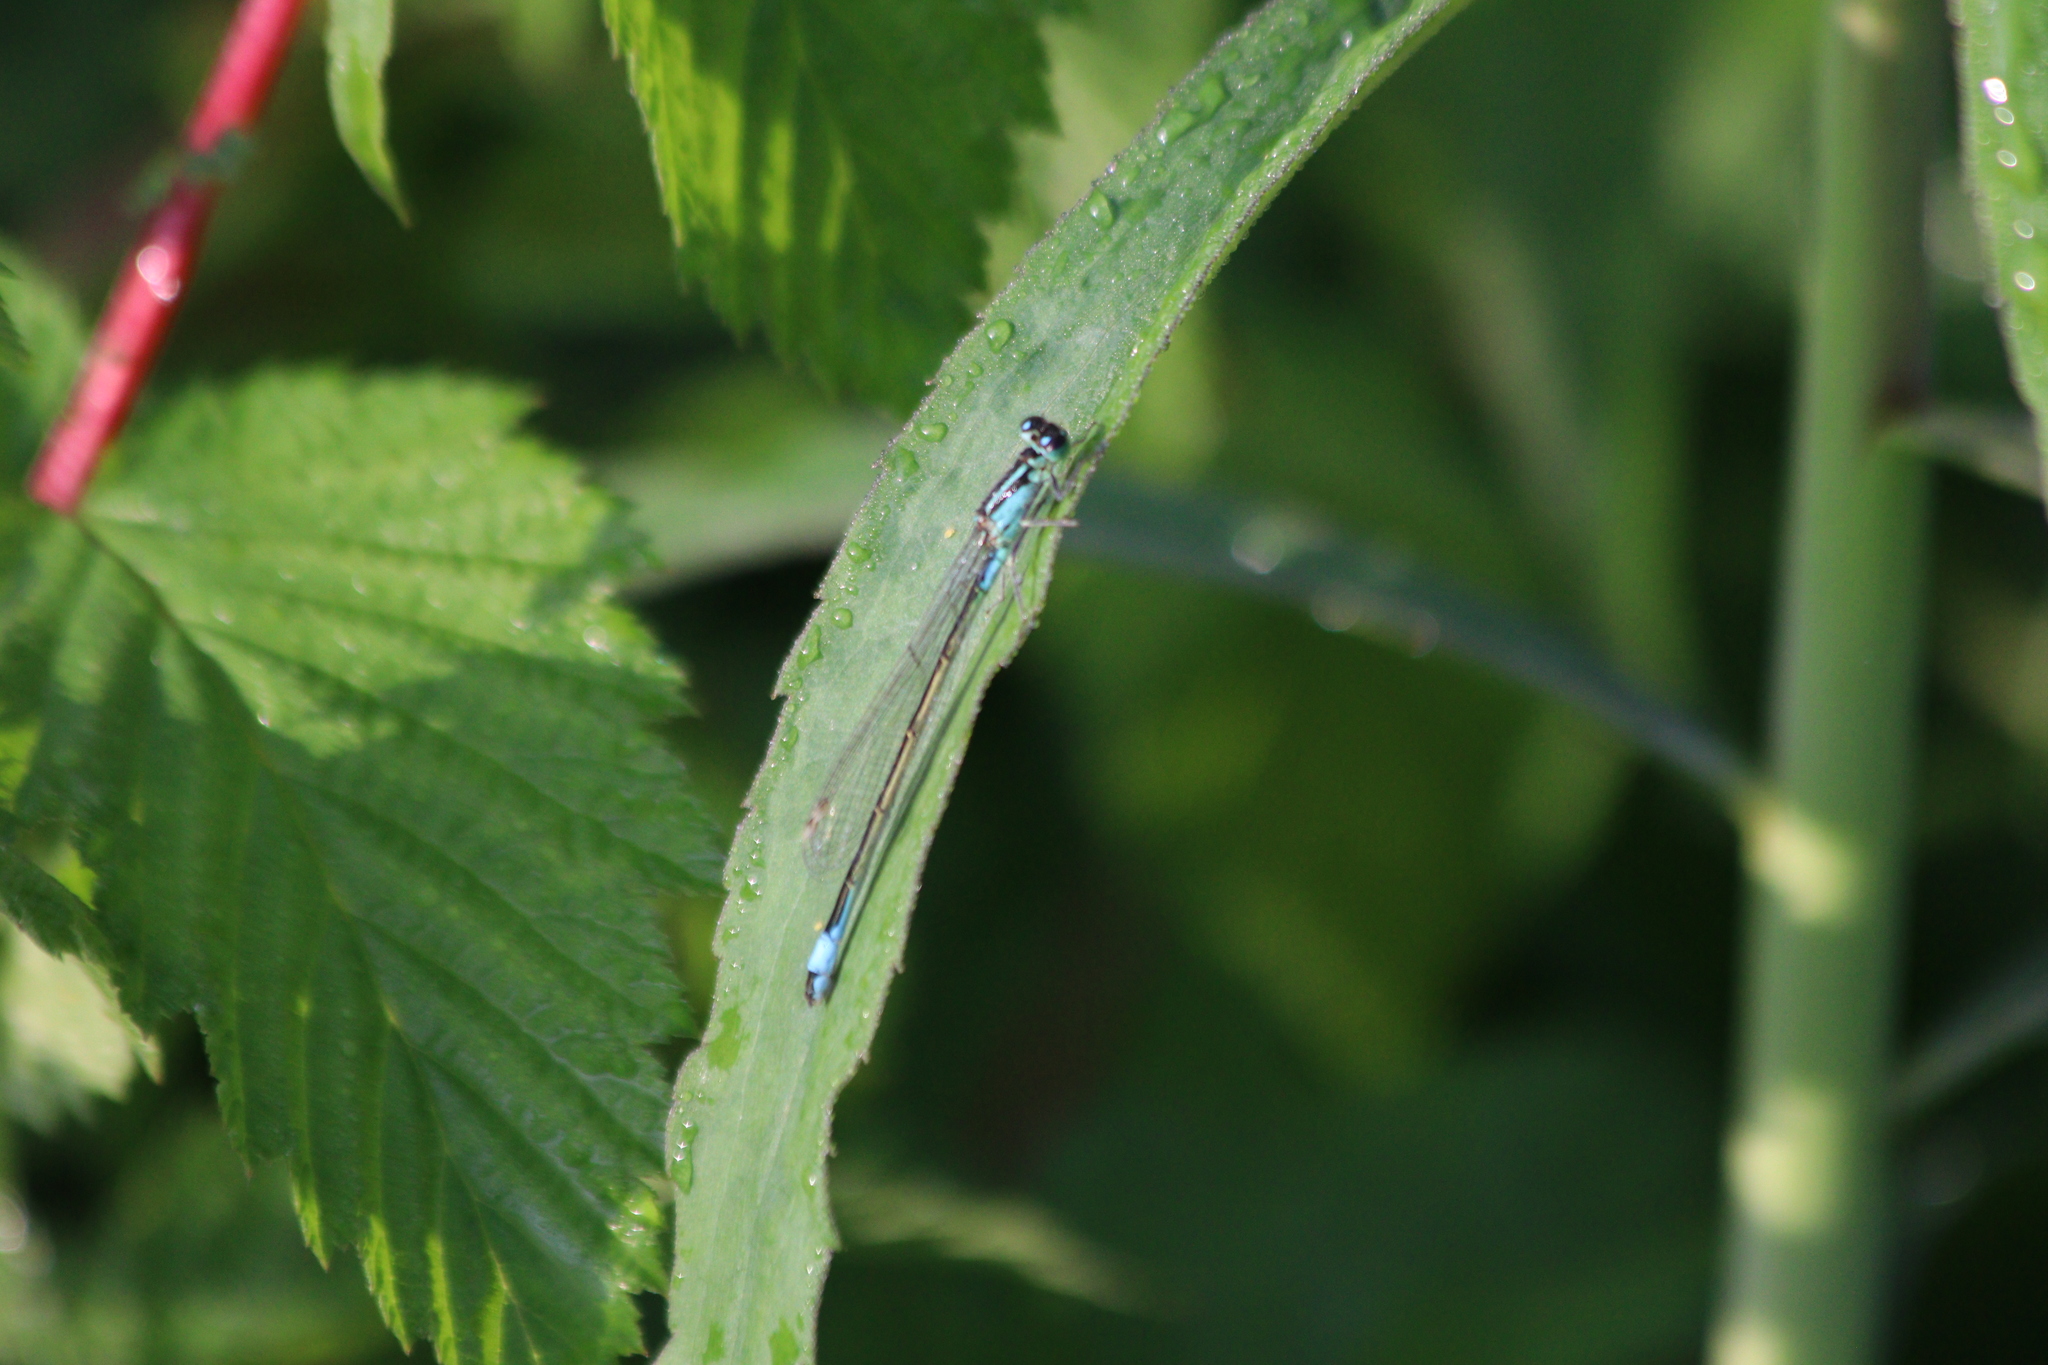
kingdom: Animalia
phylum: Arthropoda
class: Insecta
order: Odonata
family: Coenagrionidae
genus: Ischnura
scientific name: Ischnura elegans
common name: Blue-tailed damselfly
